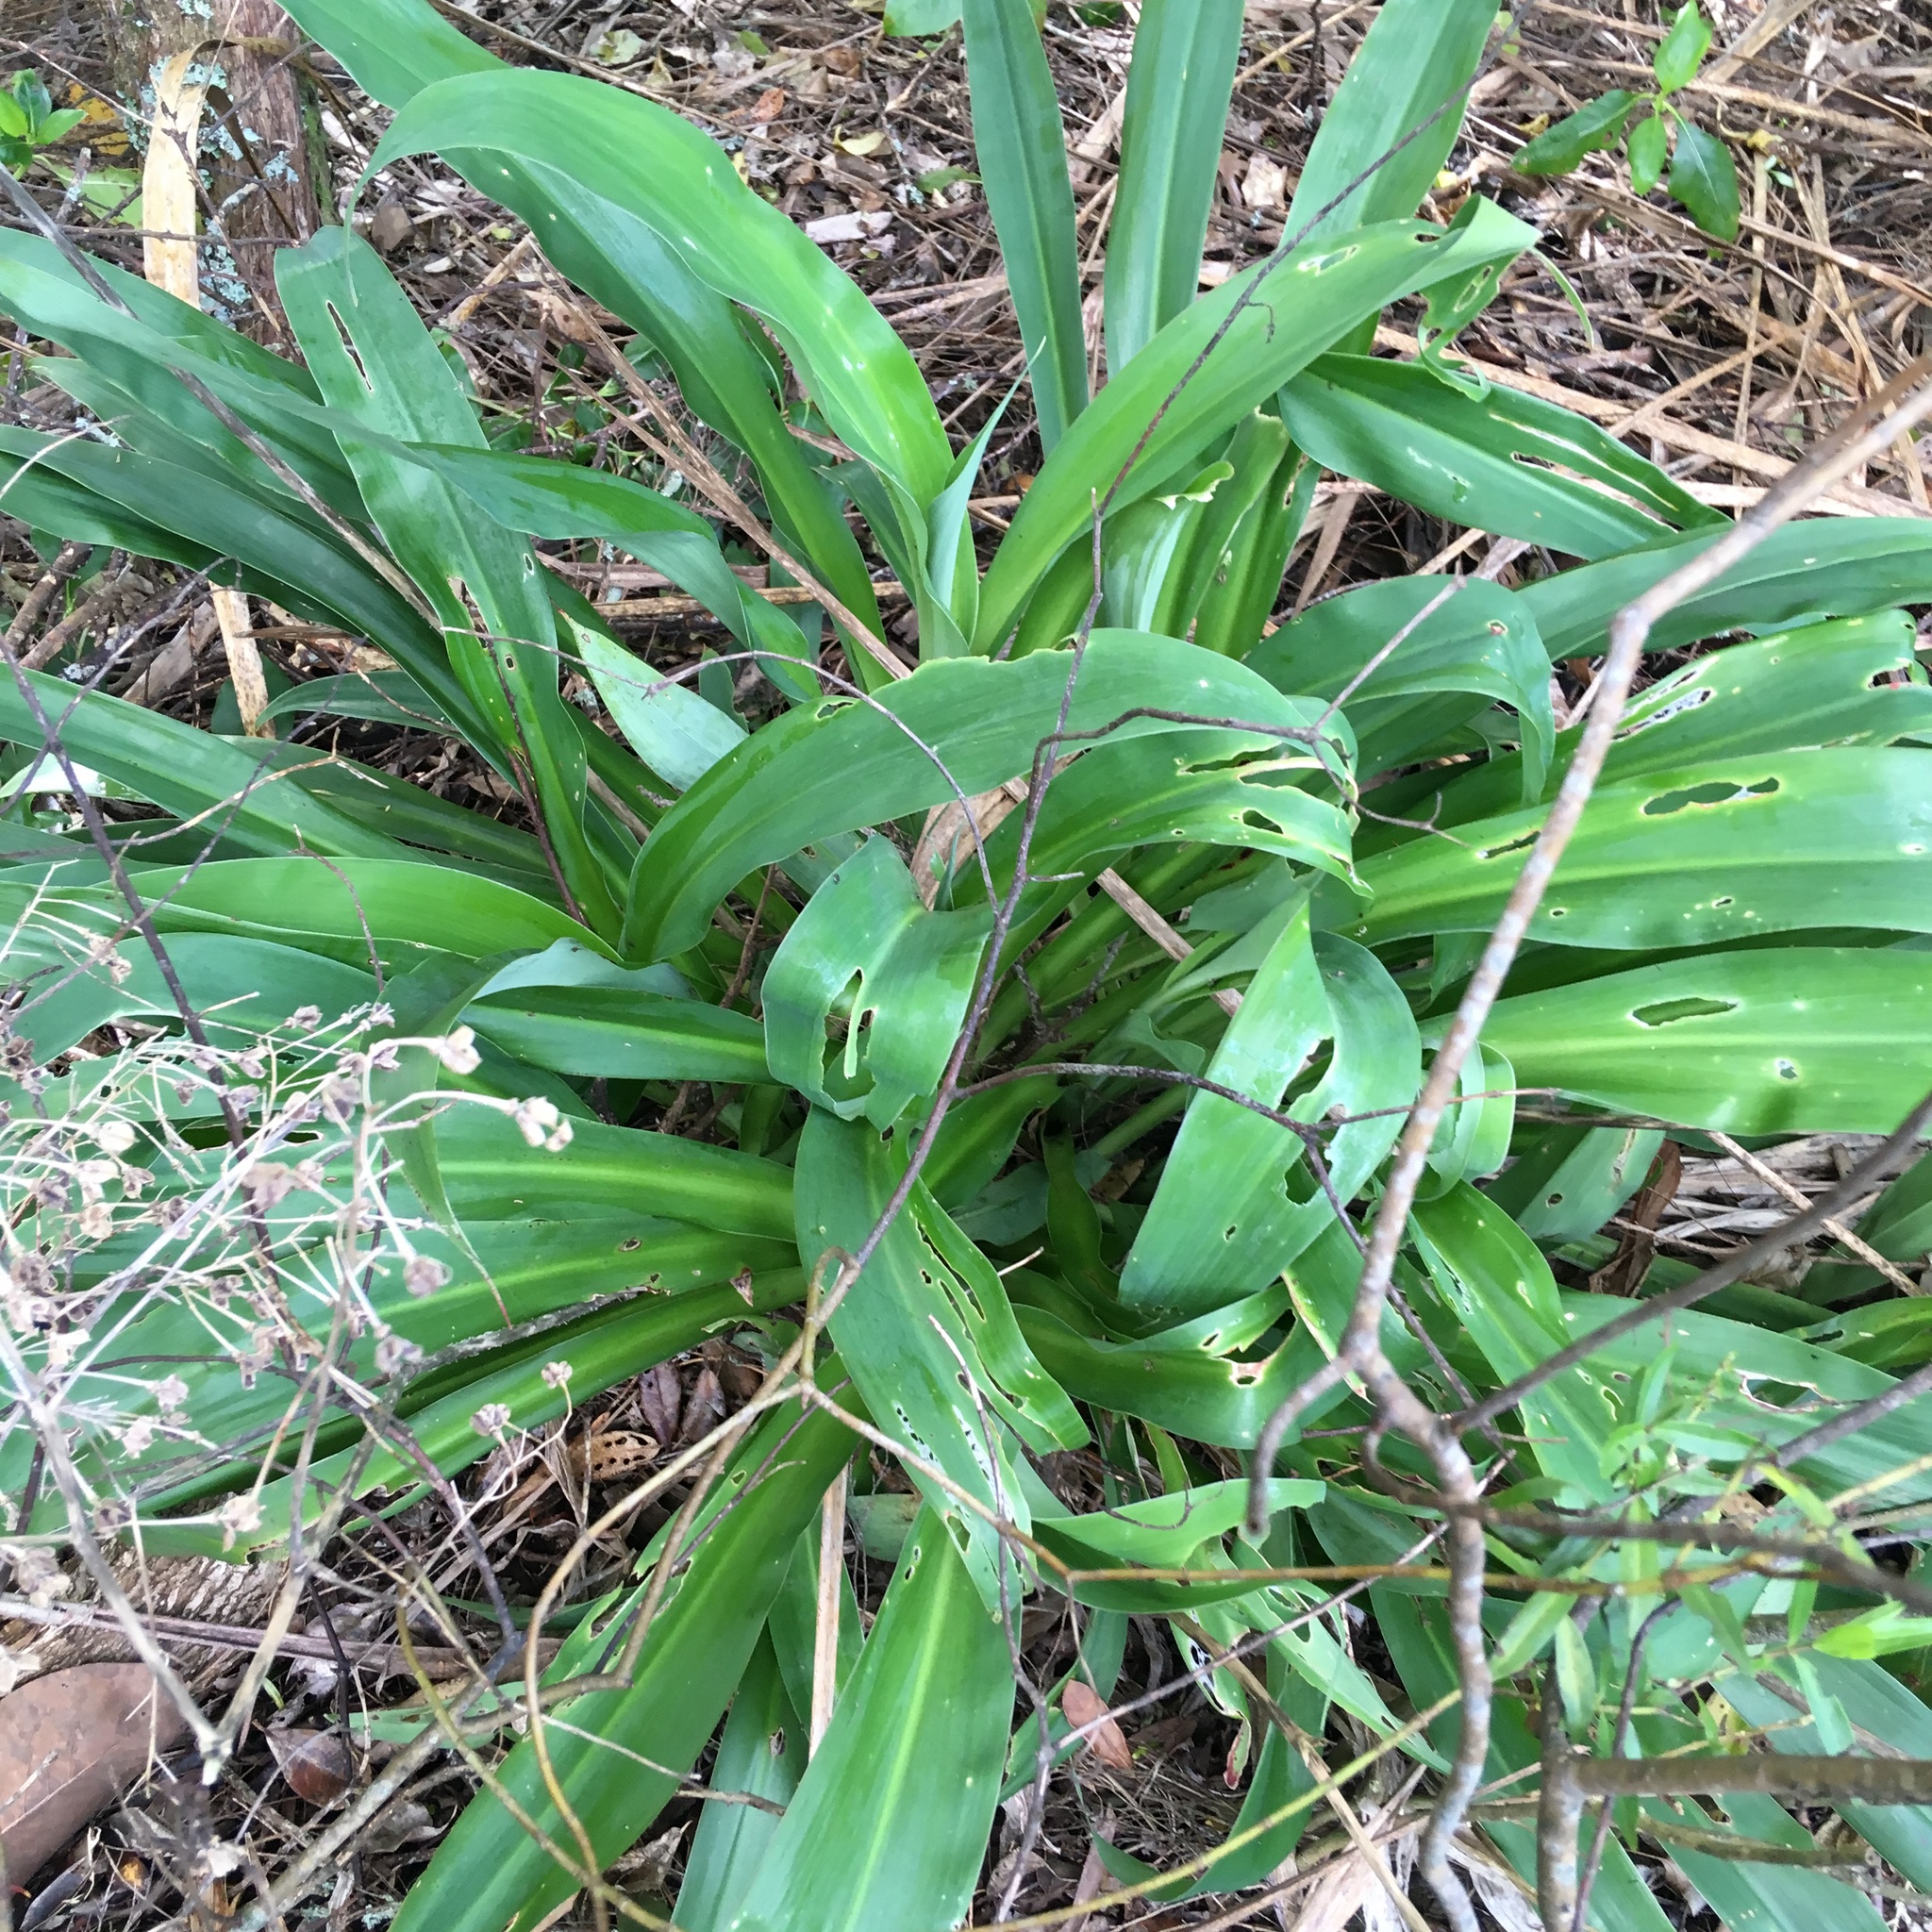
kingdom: Plantae
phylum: Tracheophyta
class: Liliopsida
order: Asparagales
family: Asparagaceae
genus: Arthropodium
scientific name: Arthropodium cirratum
